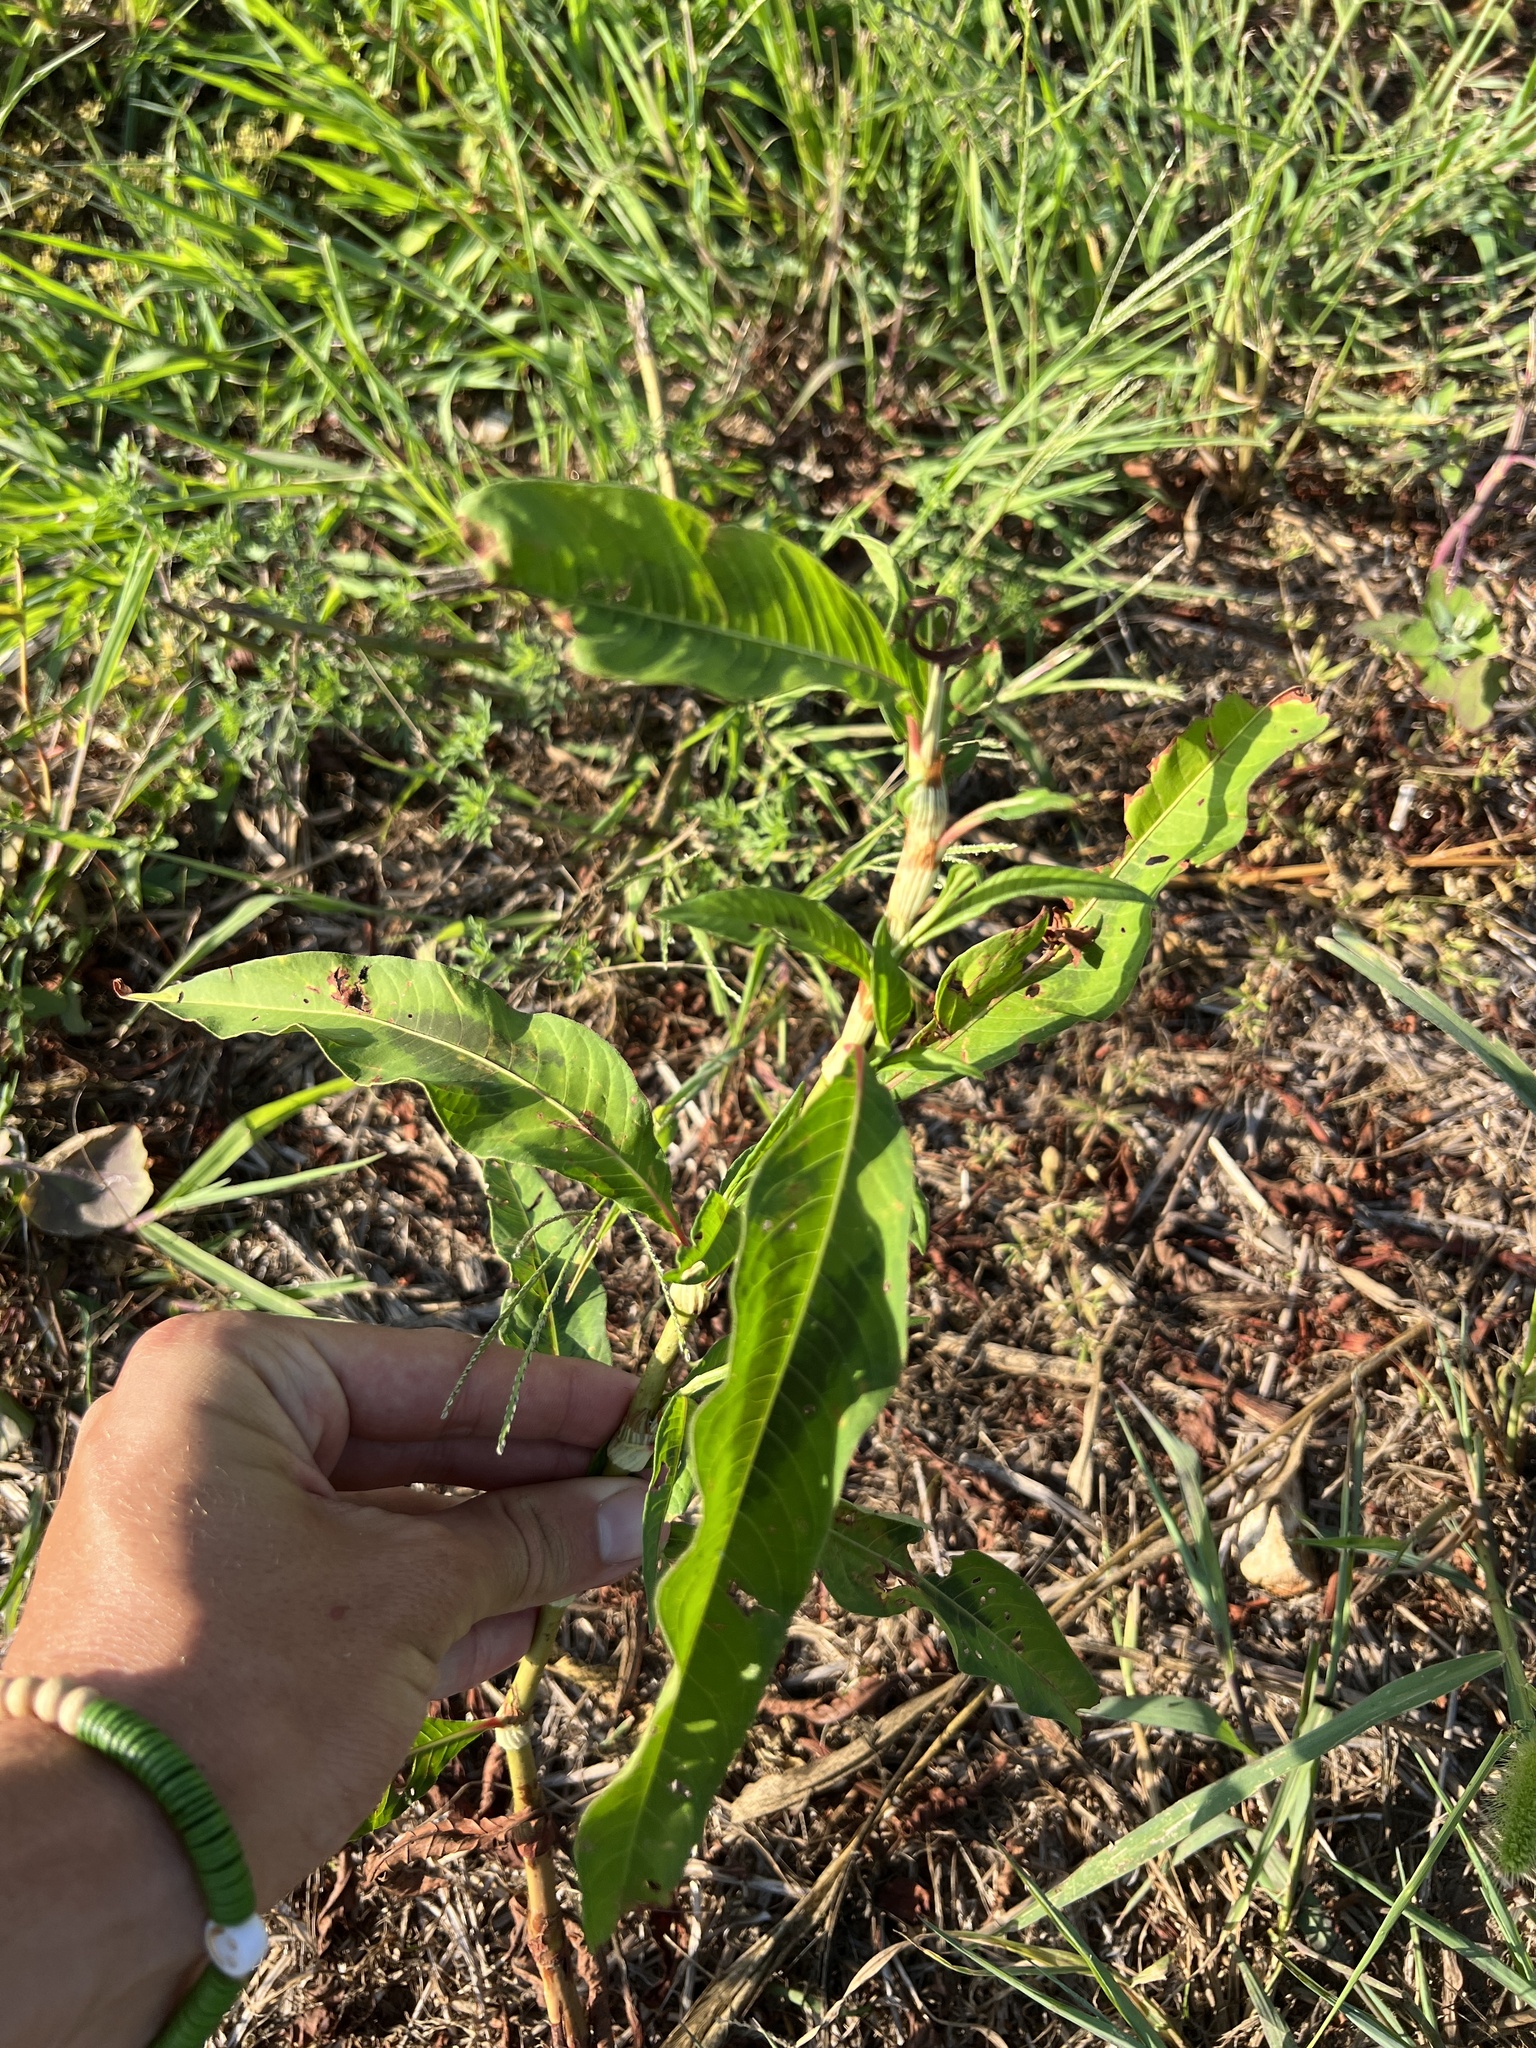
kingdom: Plantae
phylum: Tracheophyta
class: Magnoliopsida
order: Caryophyllales
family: Polygonaceae
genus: Persicaria
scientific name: Persicaria lapathifolia
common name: Curlytop knotweed
